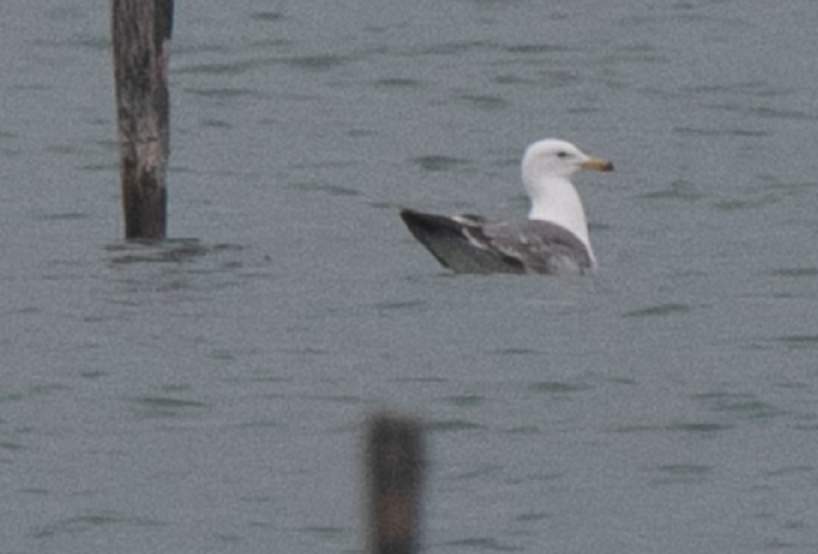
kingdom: Animalia
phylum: Chordata
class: Aves
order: Charadriiformes
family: Laridae
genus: Larus
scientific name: Larus michahellis
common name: Yellow-legged gull
